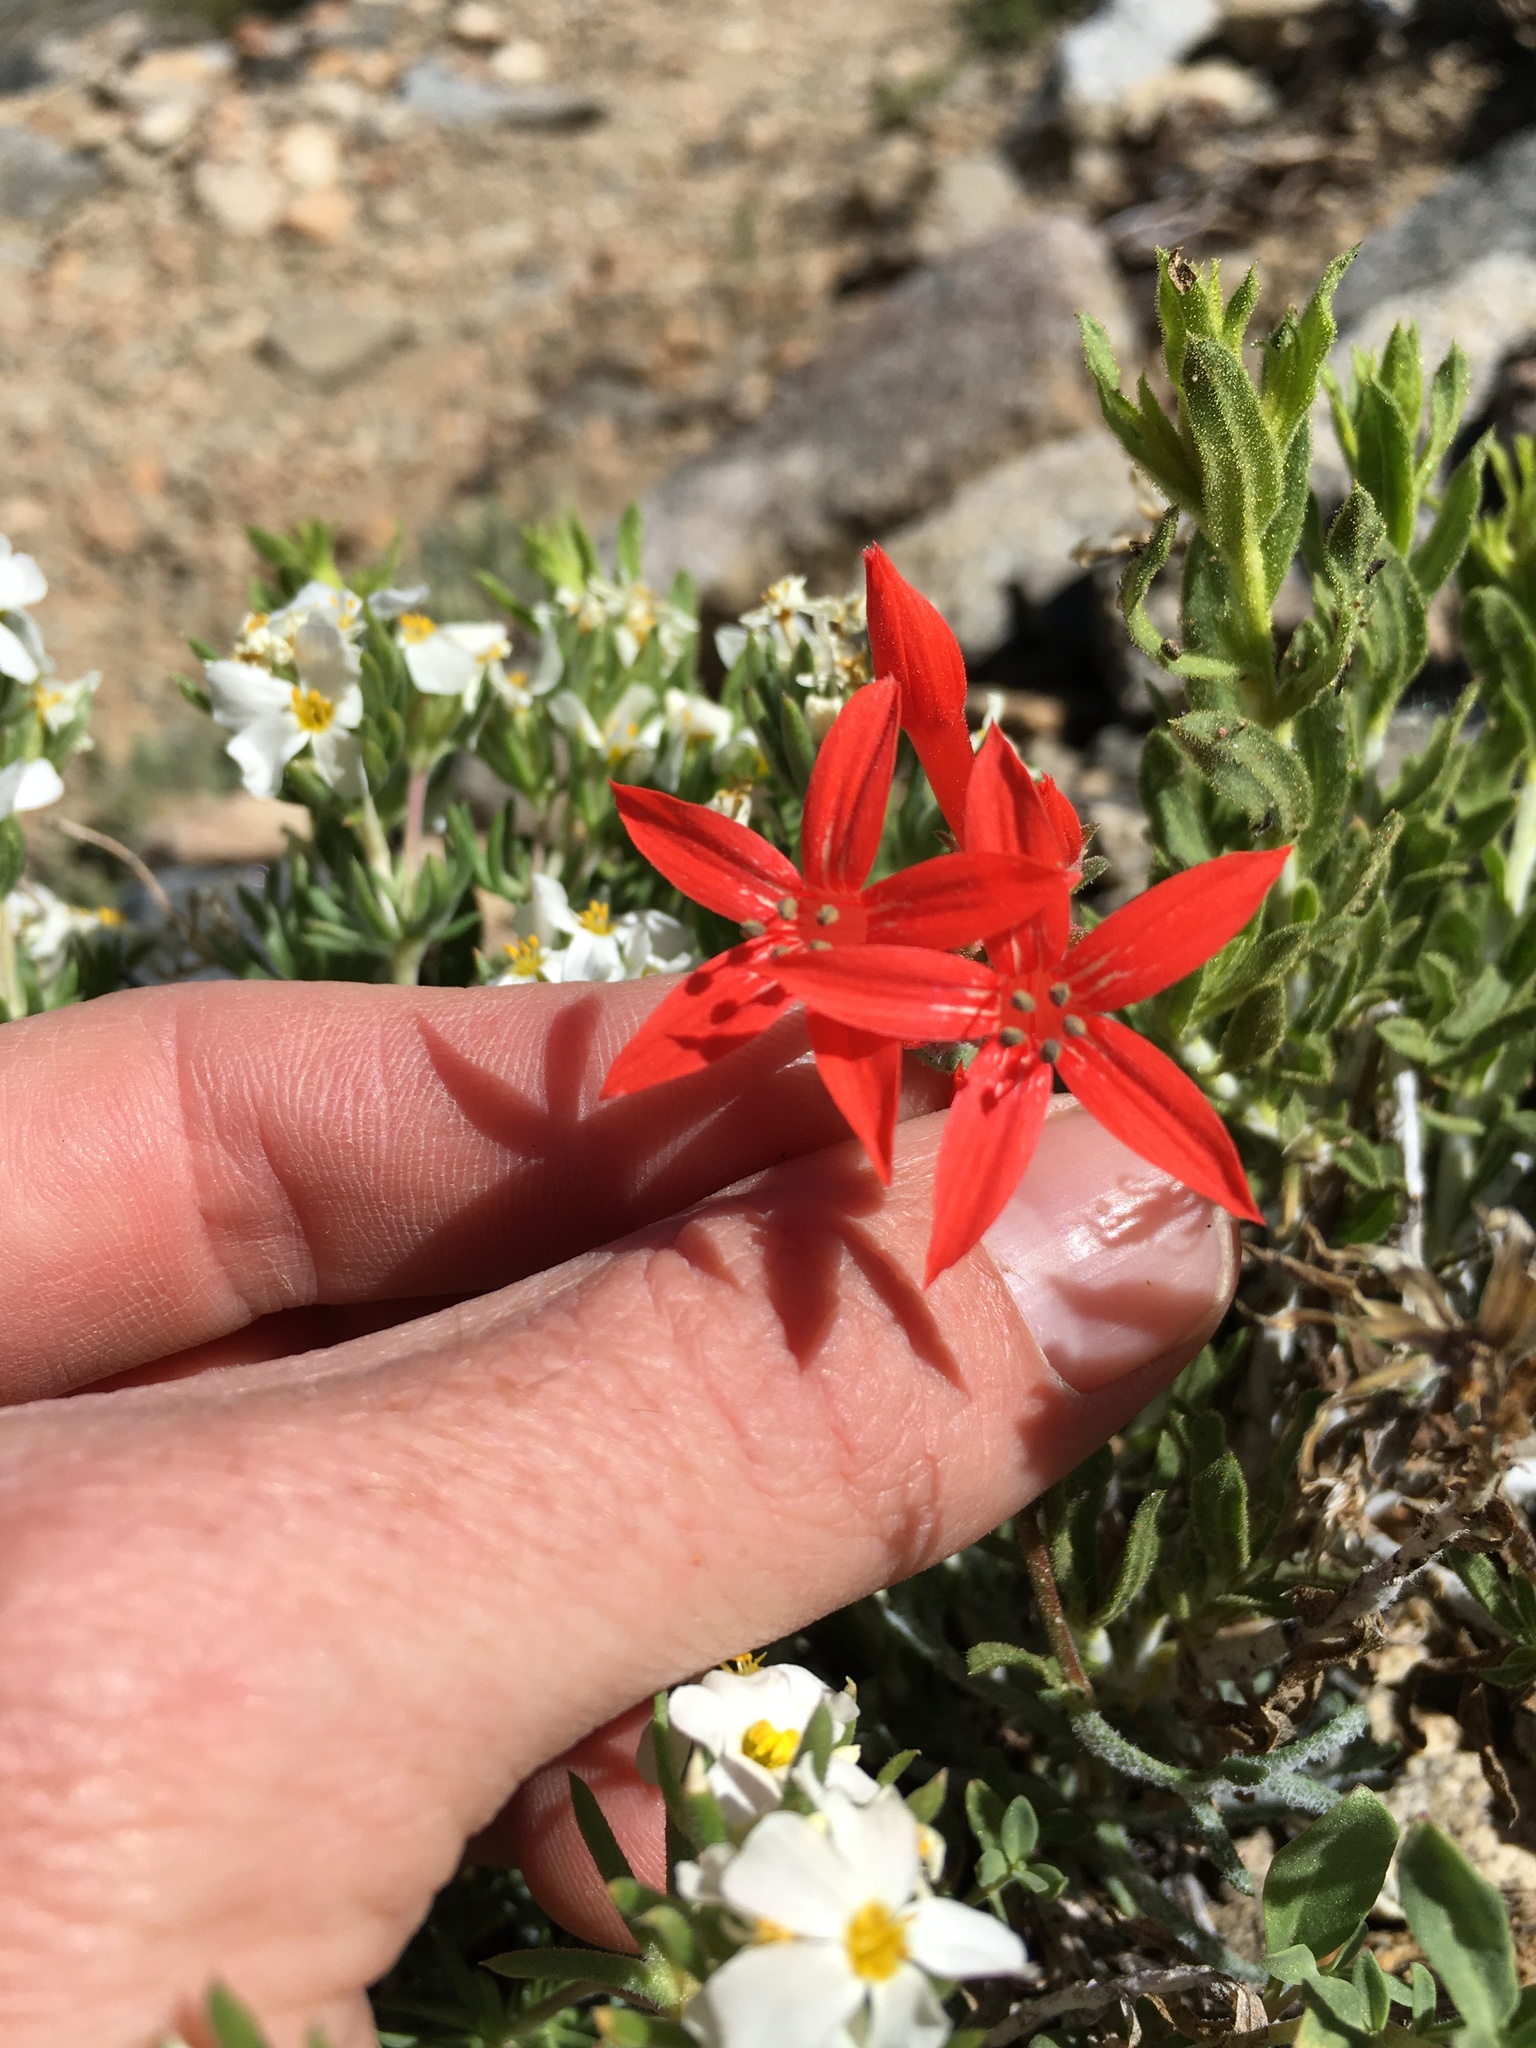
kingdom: Plantae
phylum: Tracheophyta
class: Magnoliopsida
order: Ericales
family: Polemoniaceae
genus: Ipomopsis
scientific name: Ipomopsis aggregata
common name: Scarlet gilia
